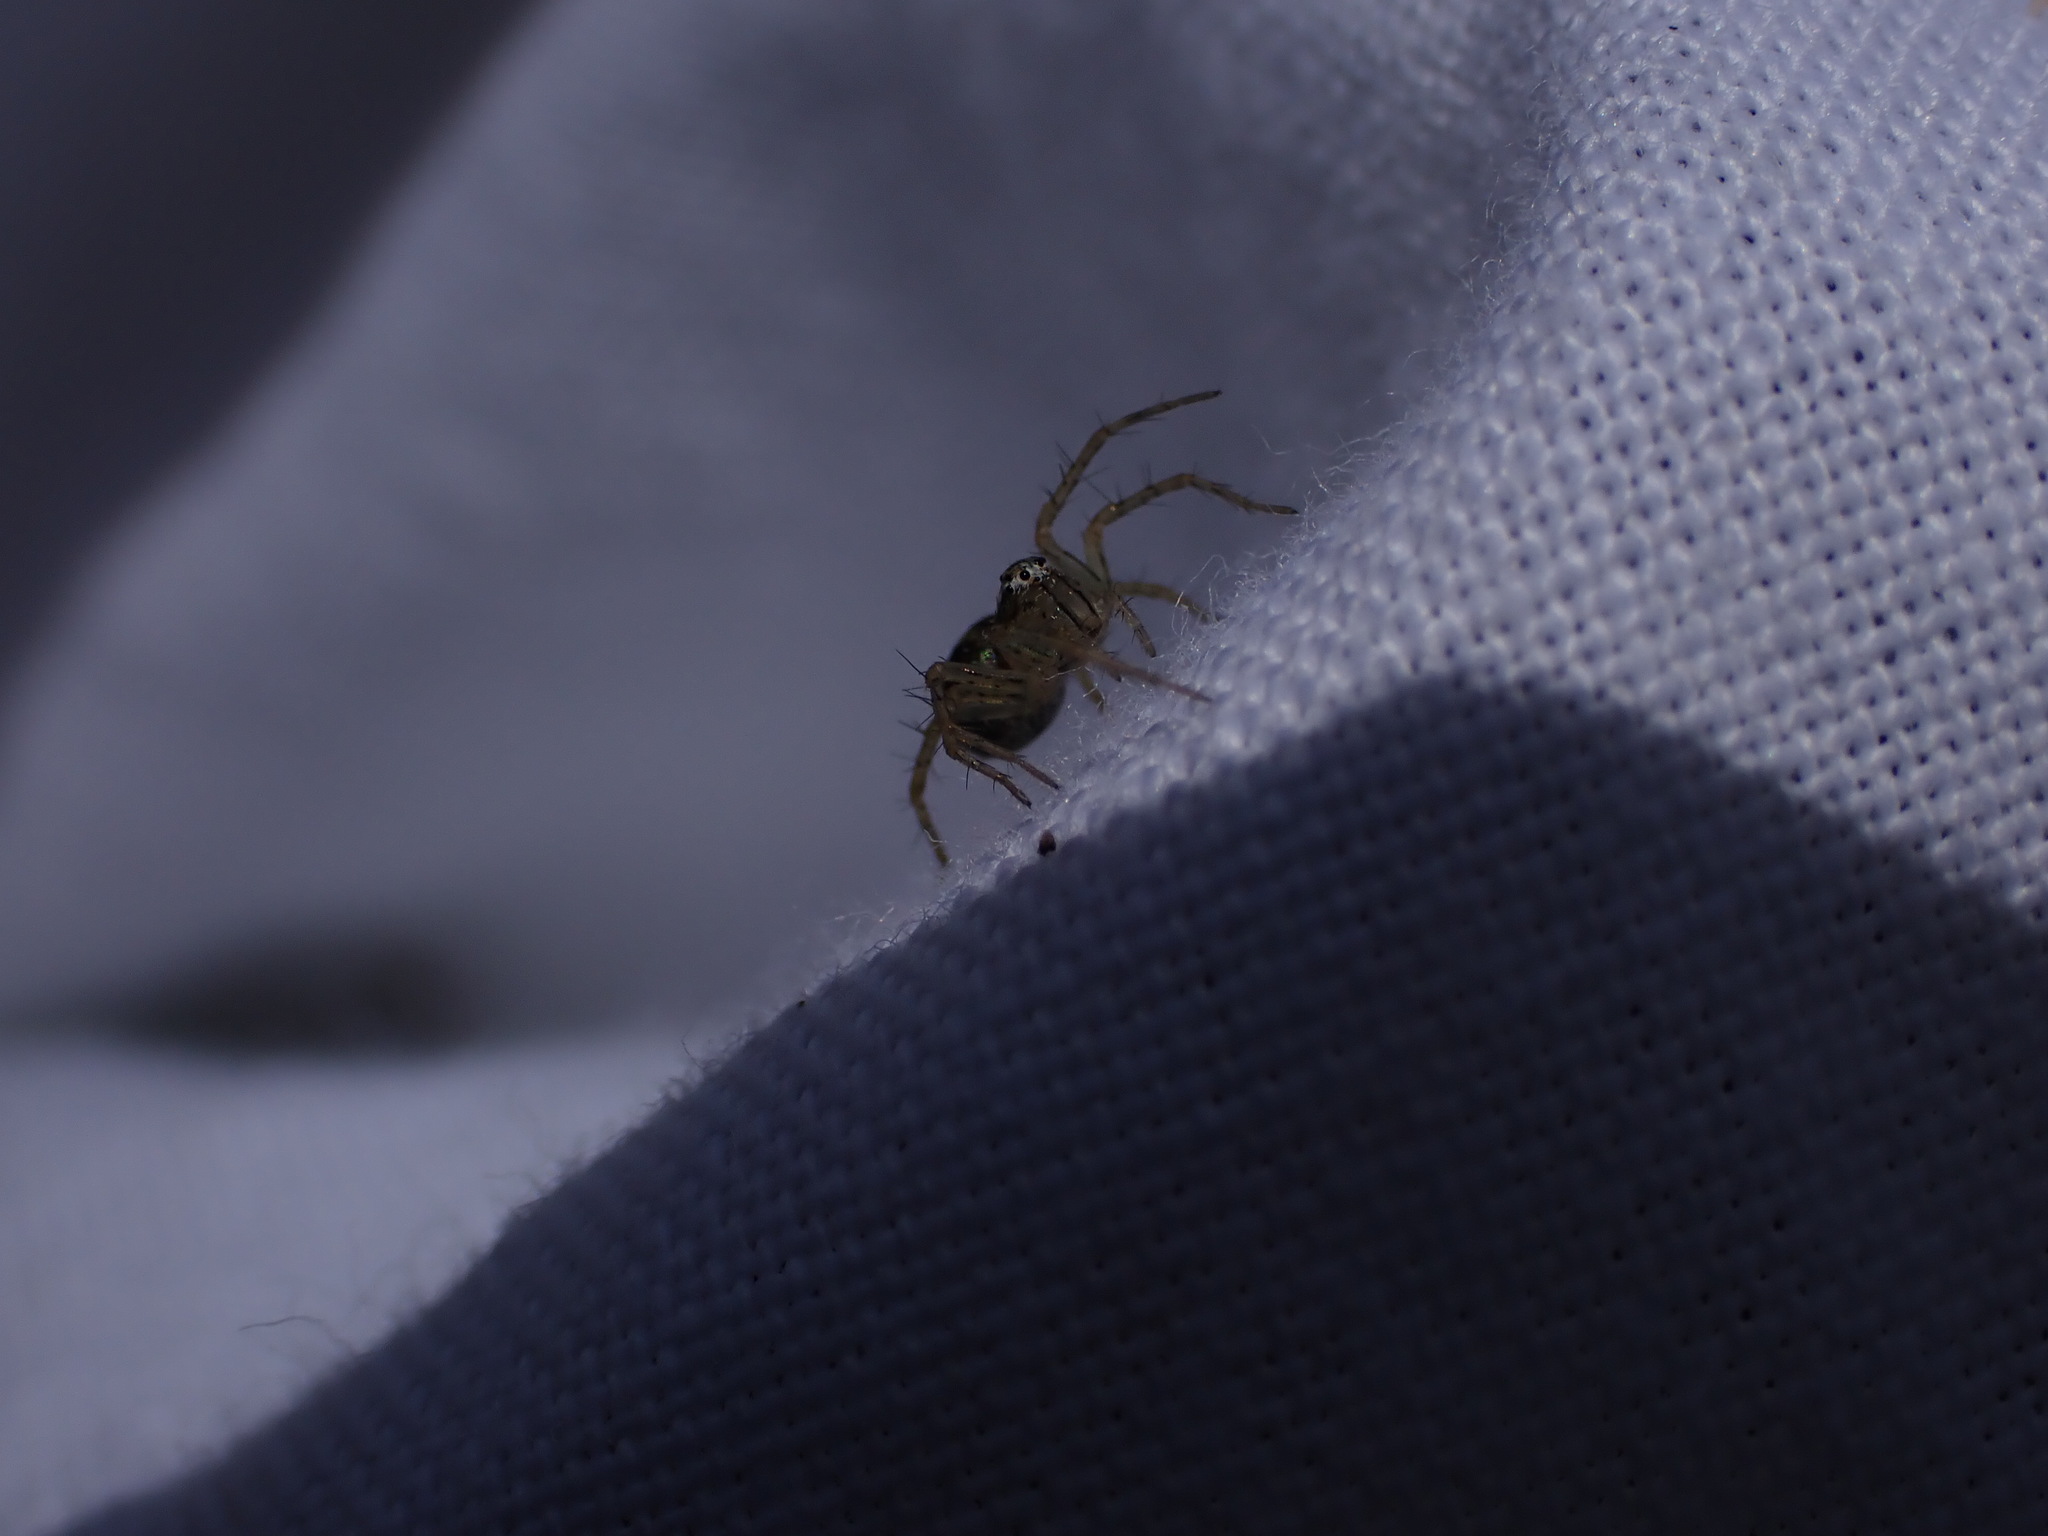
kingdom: Animalia
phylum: Arthropoda
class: Arachnida
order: Araneae
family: Oxyopidae
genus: Oxyopes
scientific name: Oxyopes
